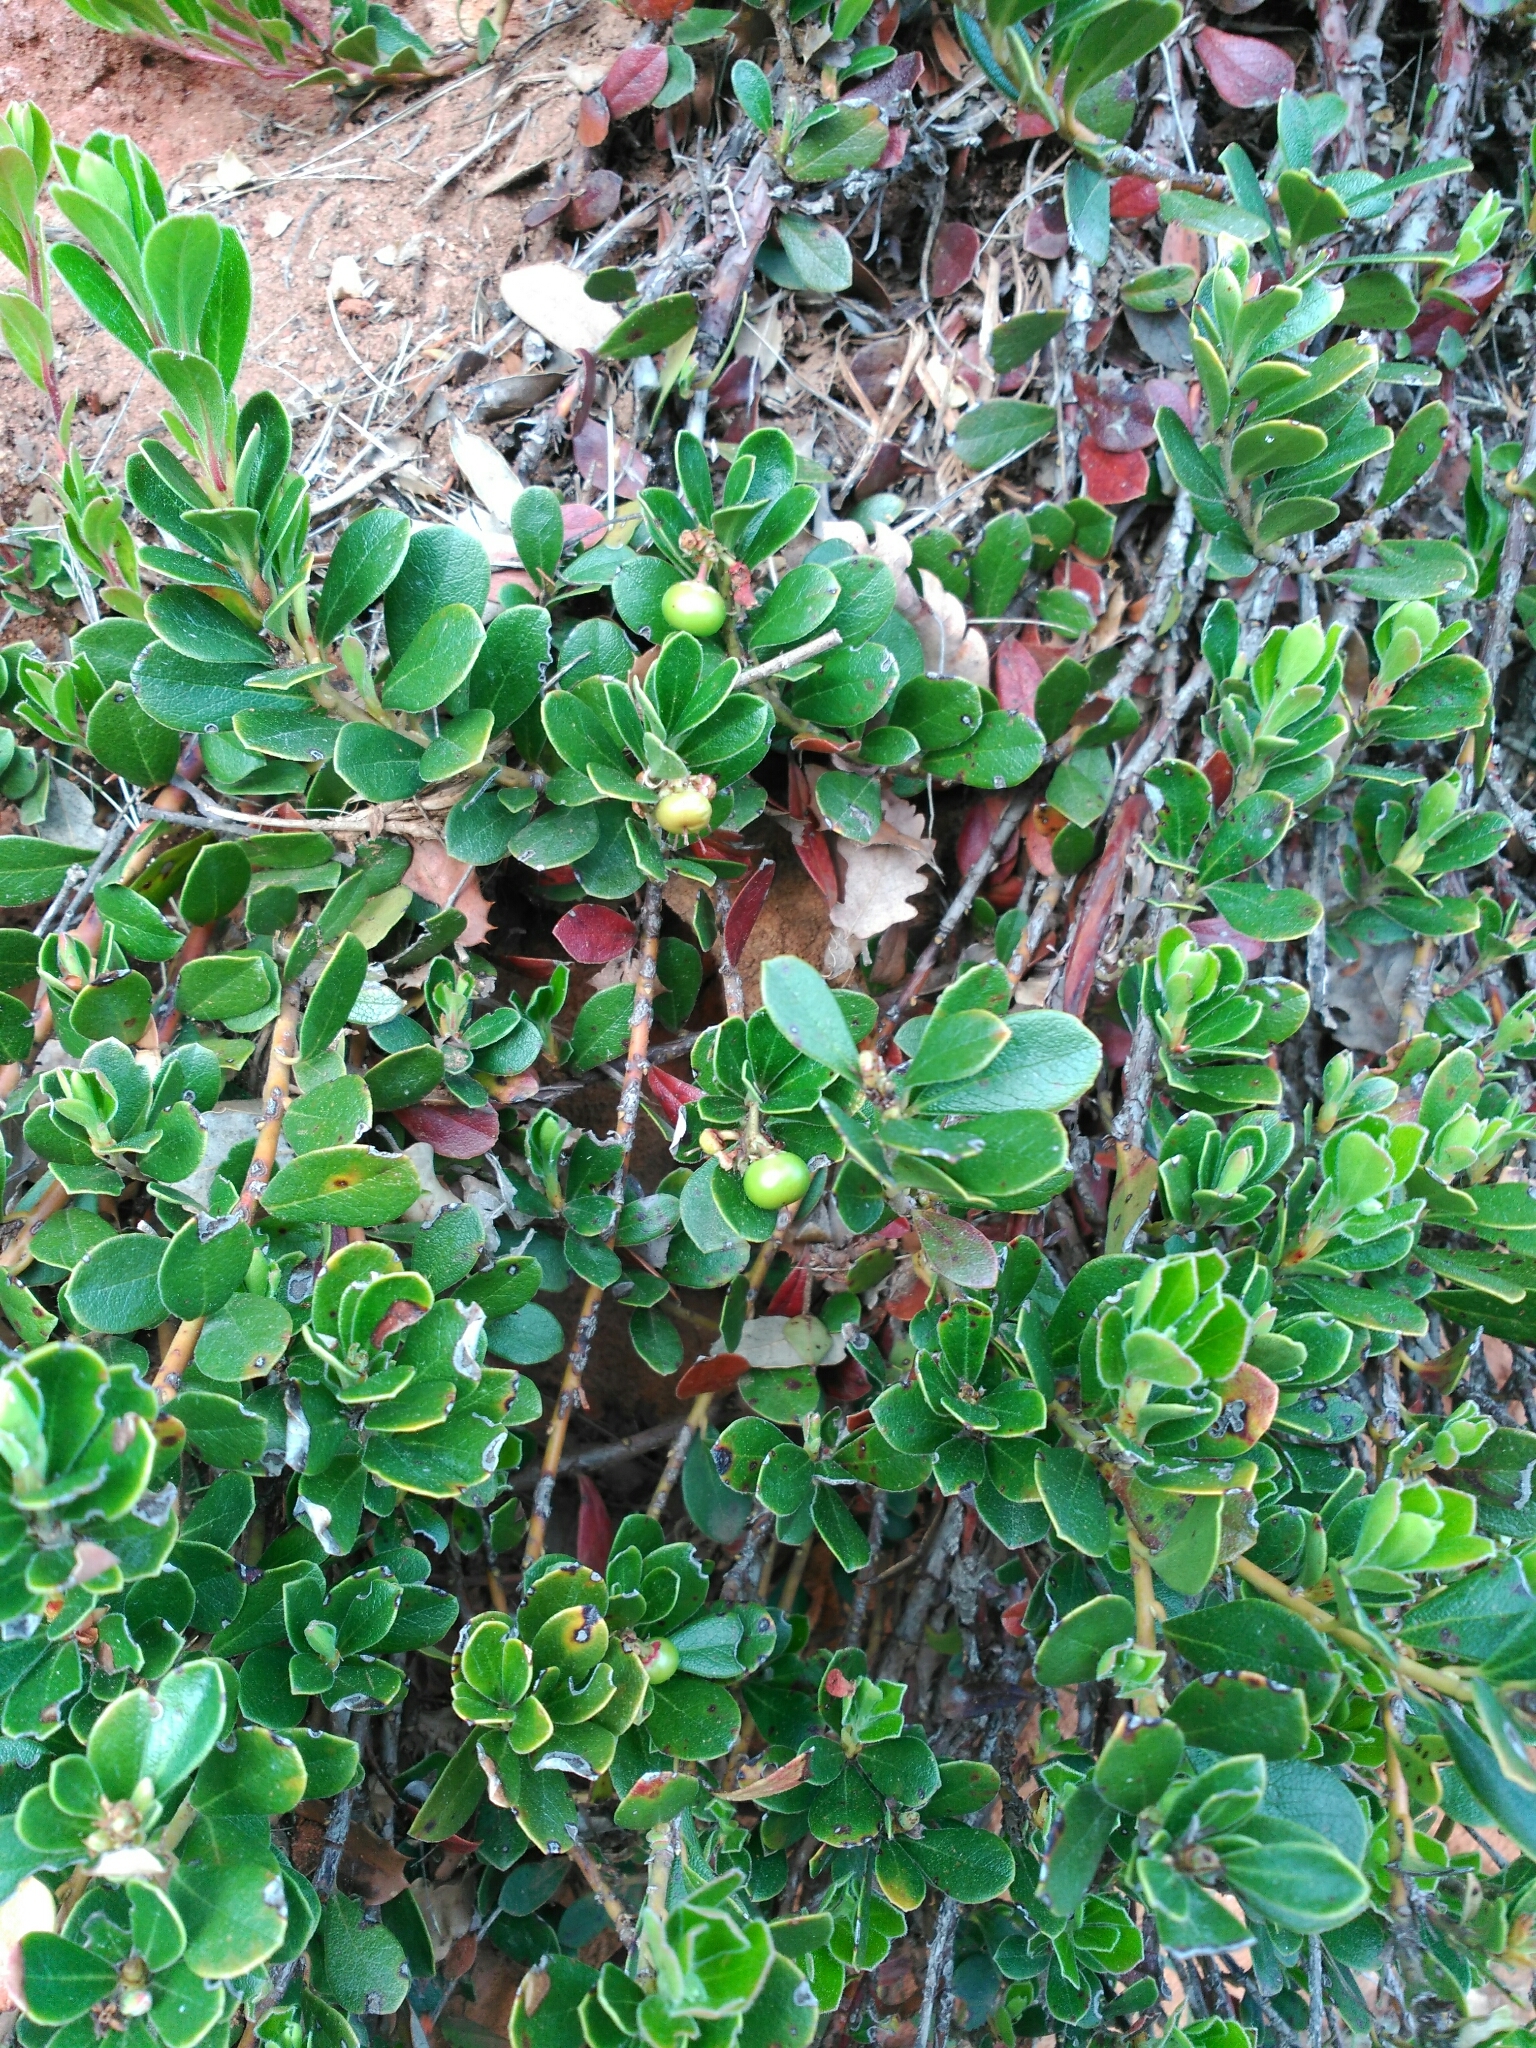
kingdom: Plantae
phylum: Tracheophyta
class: Magnoliopsida
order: Ericales
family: Ericaceae
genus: Arctostaphylos
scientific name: Arctostaphylos uva-ursi
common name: Bearberry
